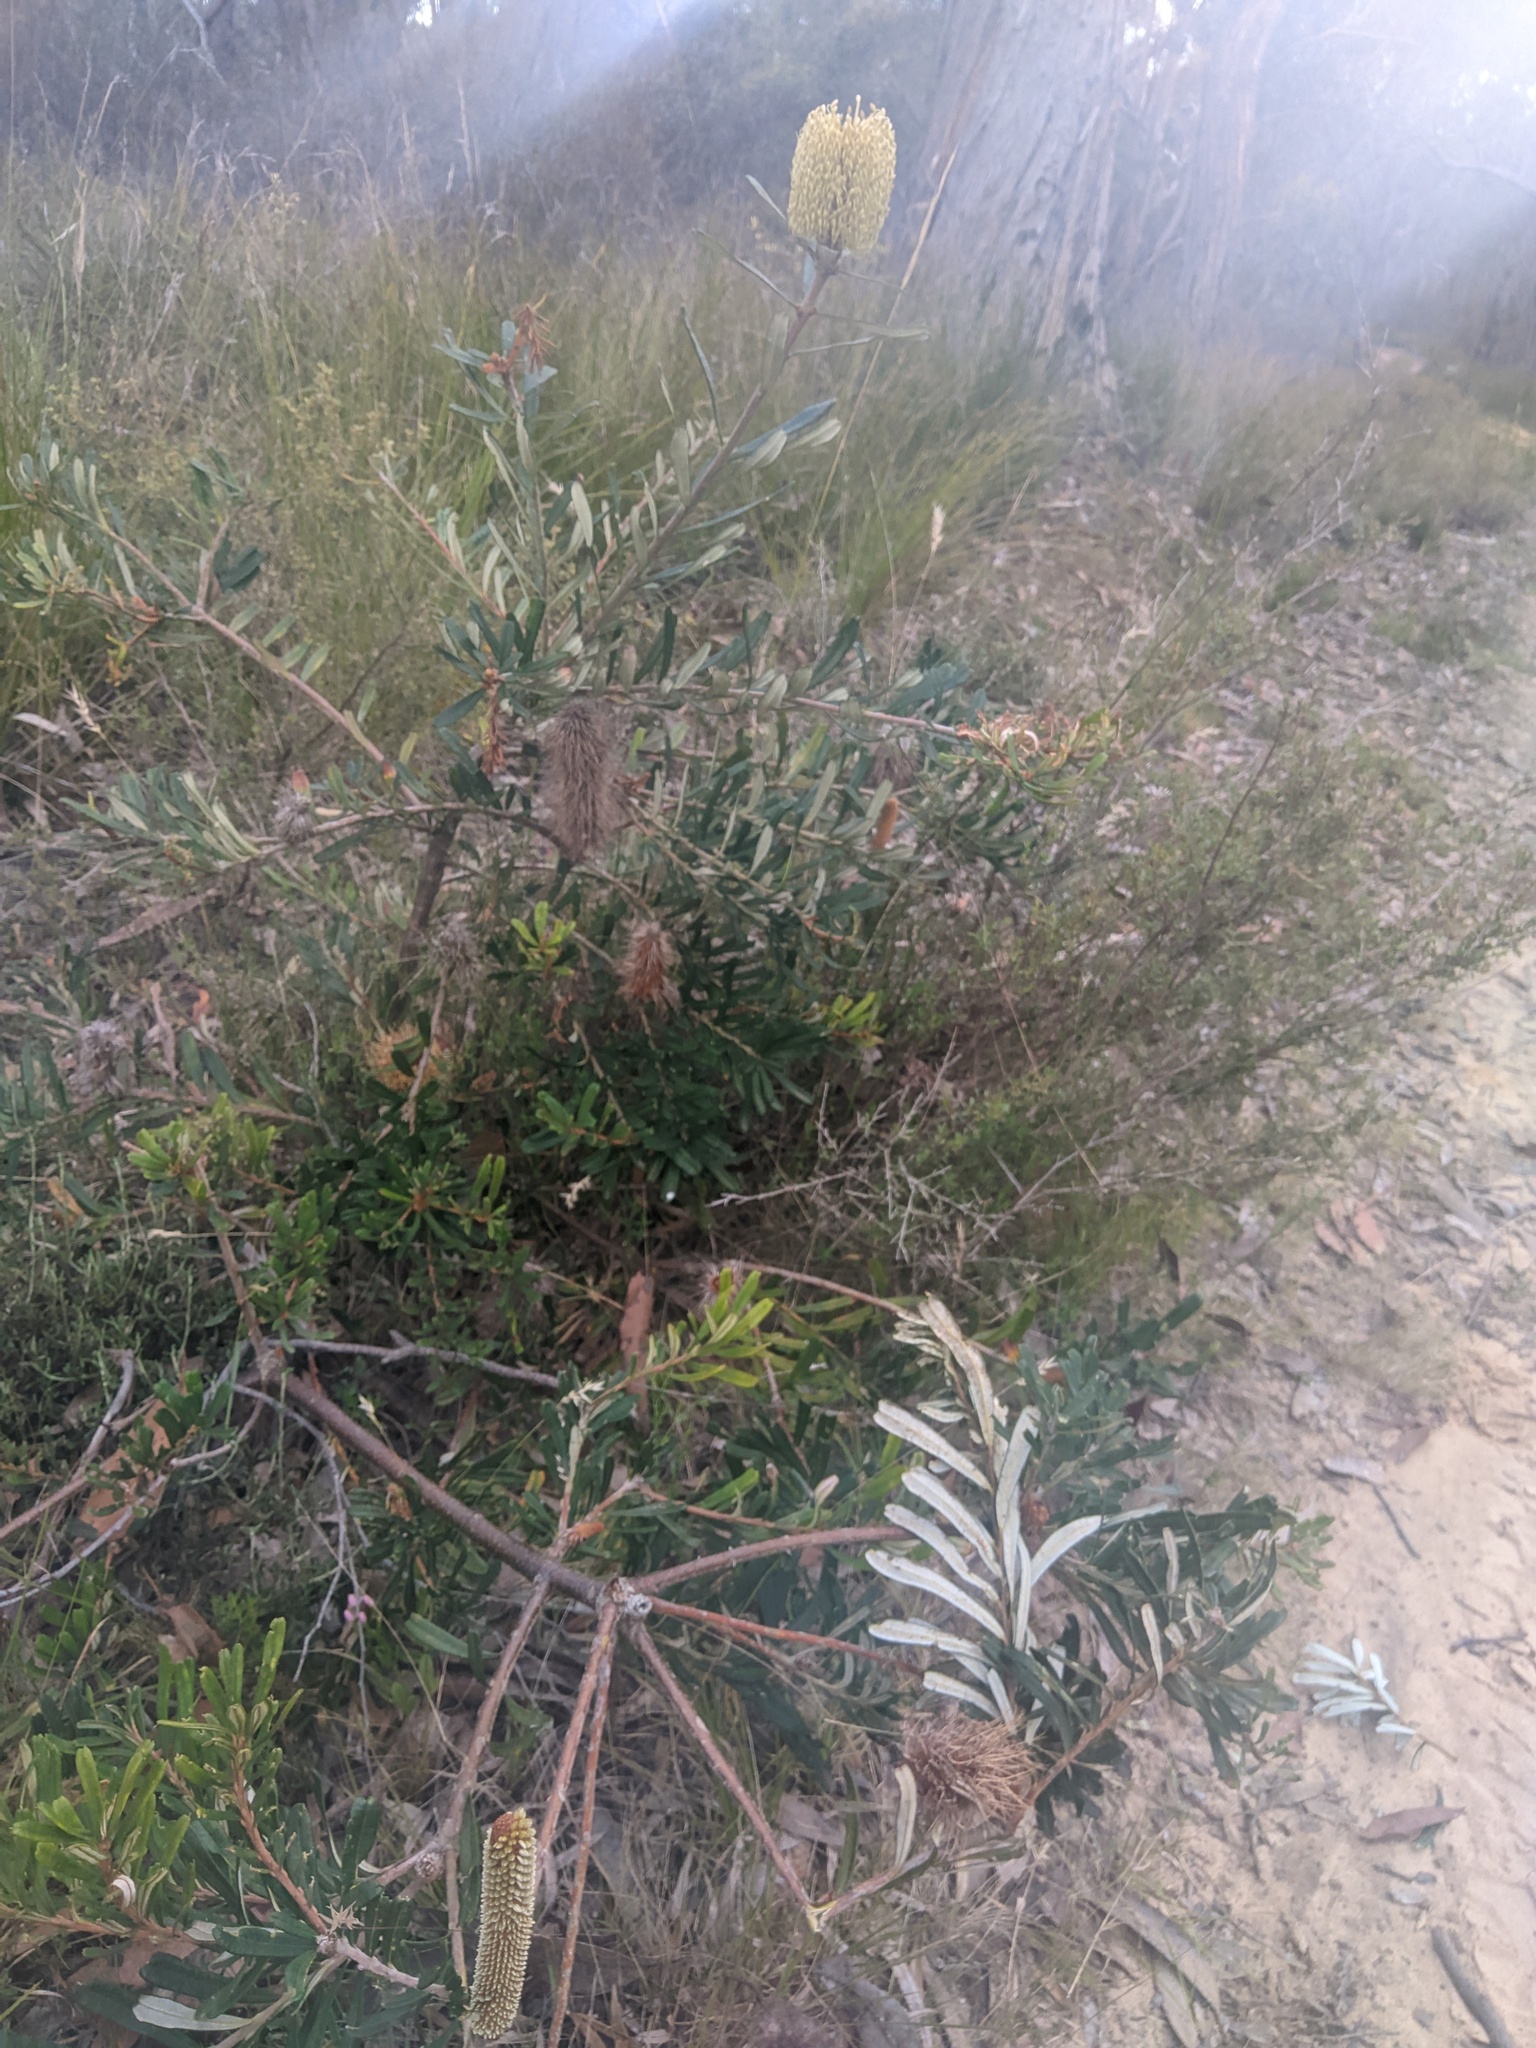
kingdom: Plantae
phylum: Tracheophyta
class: Magnoliopsida
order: Proteales
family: Proteaceae
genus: Banksia
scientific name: Banksia marginata
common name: Silver banksia
